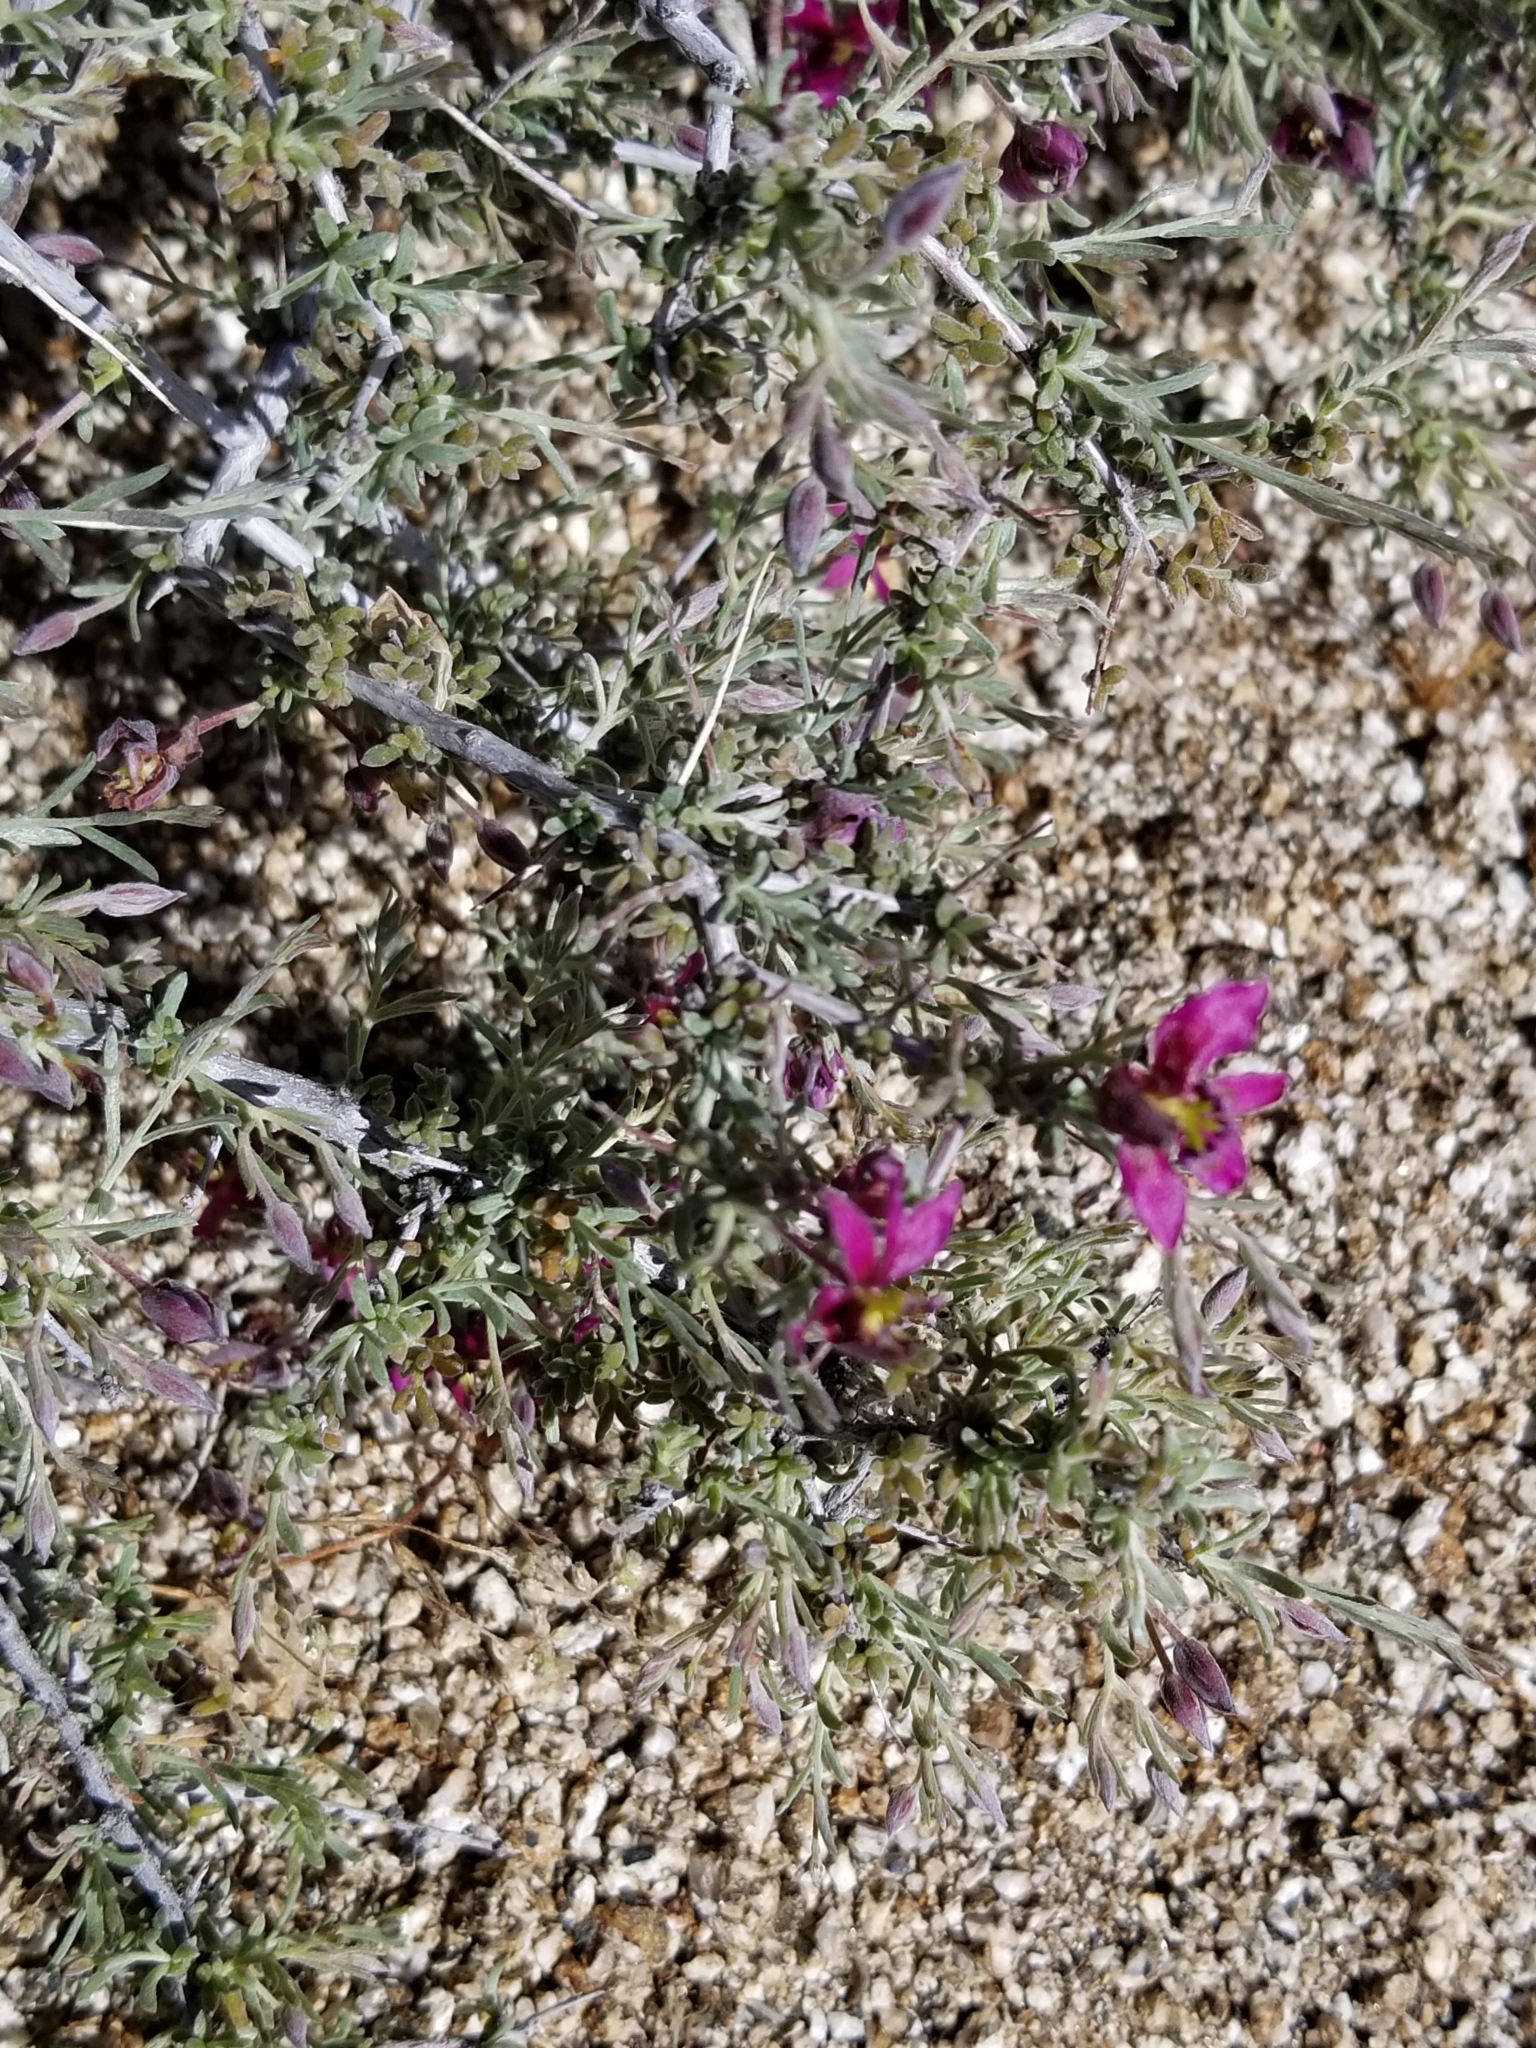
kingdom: Plantae
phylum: Tracheophyta
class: Magnoliopsida
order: Zygophyllales
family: Krameriaceae
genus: Krameria
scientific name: Krameria erecta
